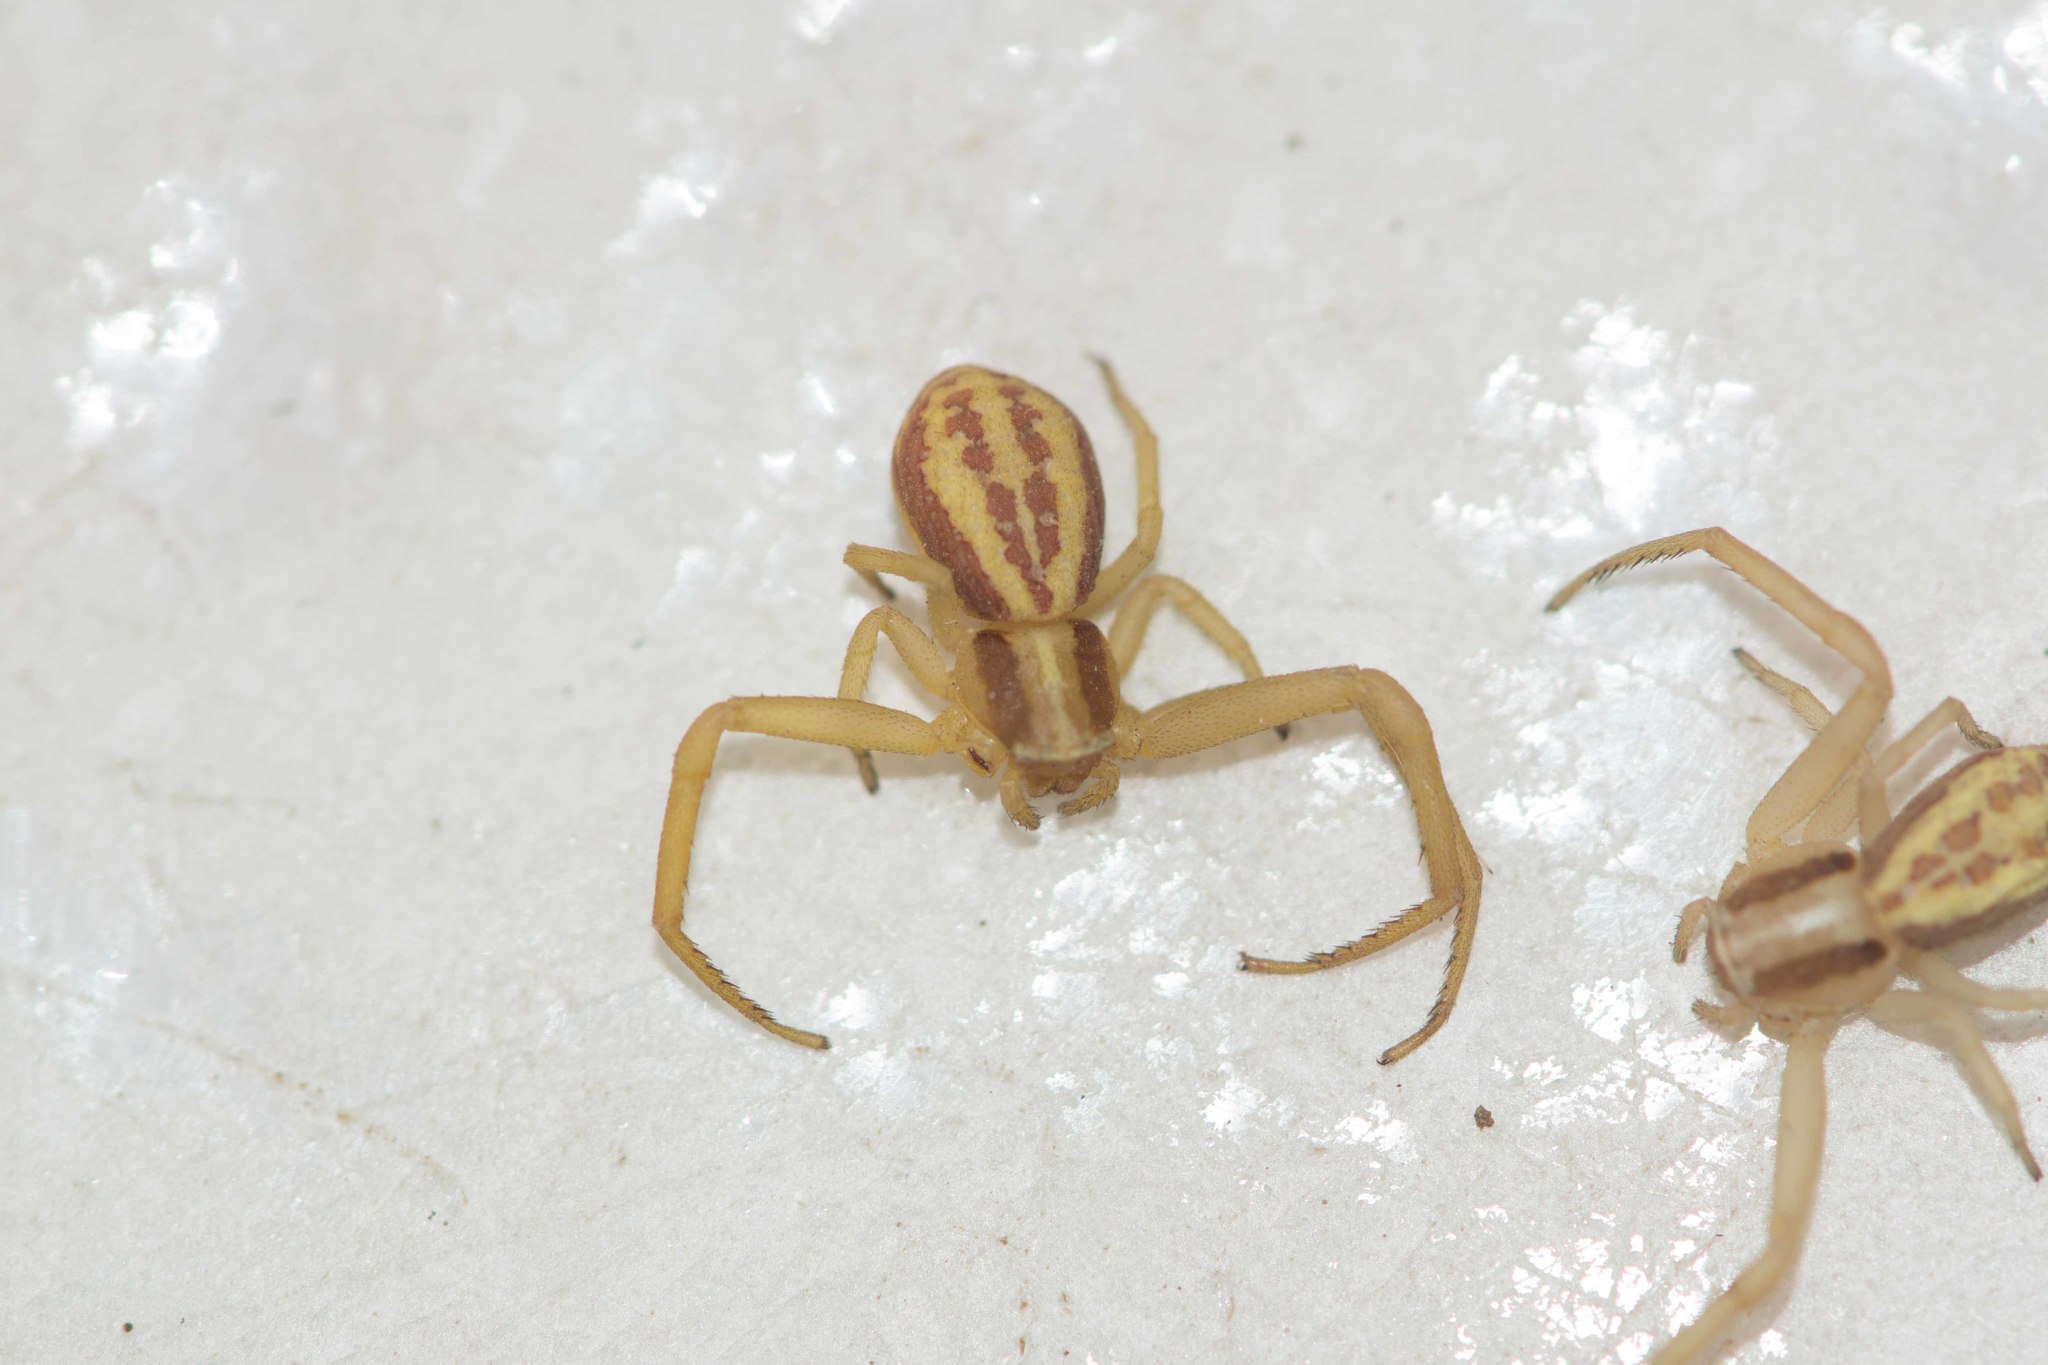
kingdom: Animalia
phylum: Arthropoda
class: Arachnida
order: Araneae
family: Thomisidae
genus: Runcinia
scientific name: Runcinia grammica
